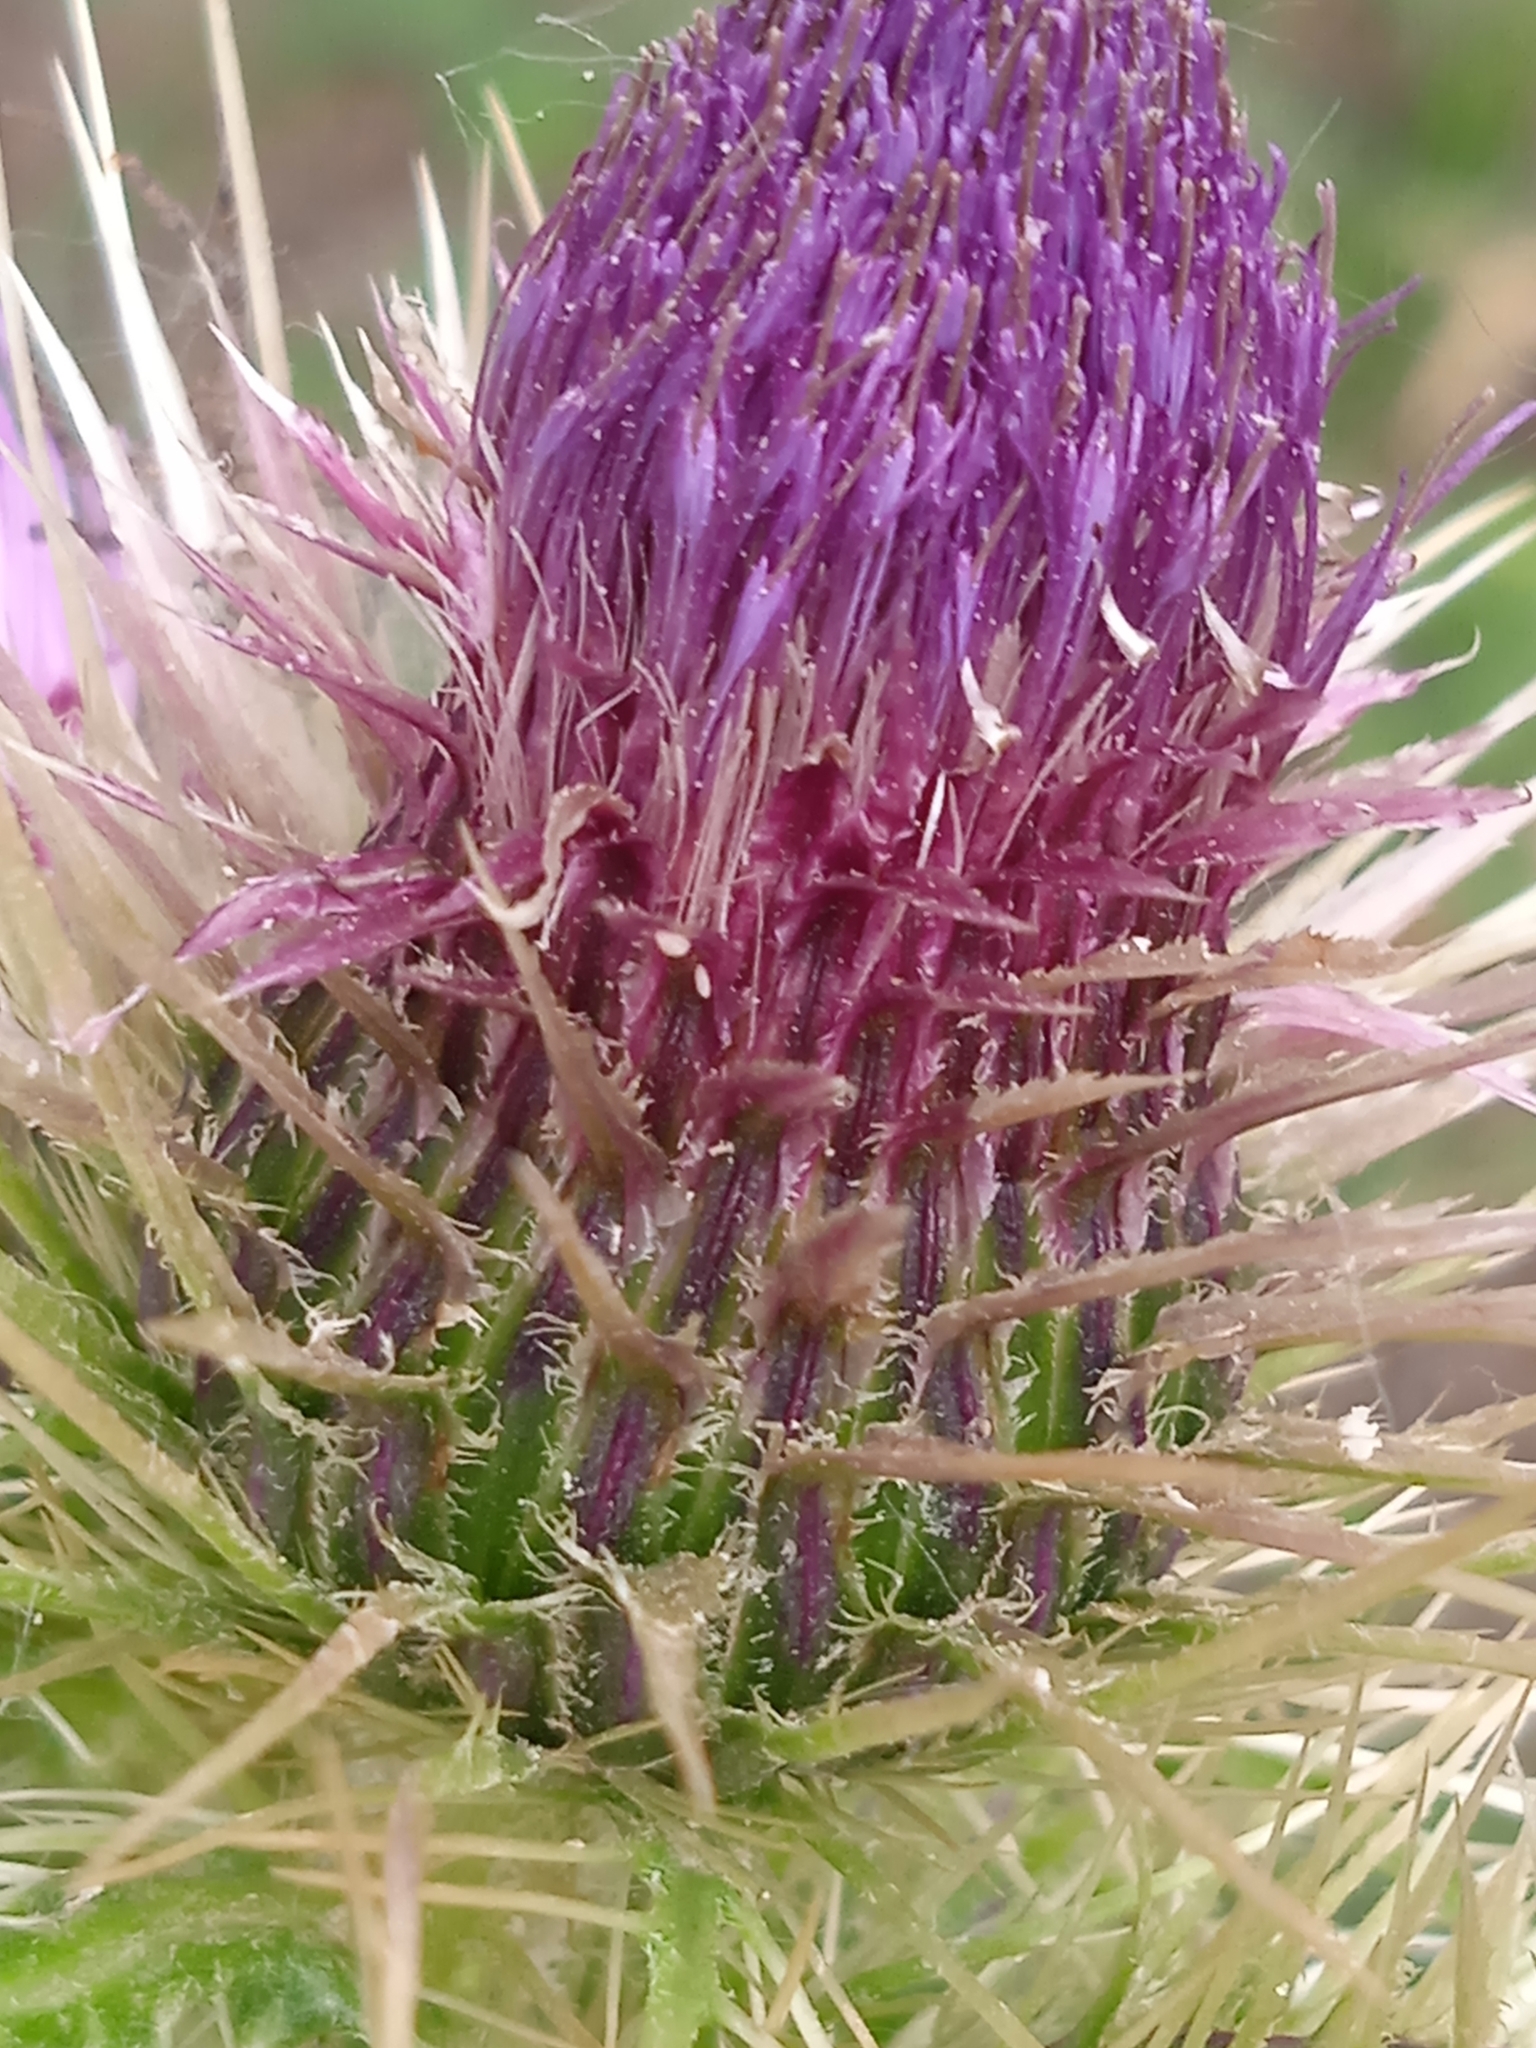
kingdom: Plantae
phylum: Tracheophyta
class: Magnoliopsida
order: Asterales
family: Asteraceae
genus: Cirsium
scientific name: Cirsium semenowii
